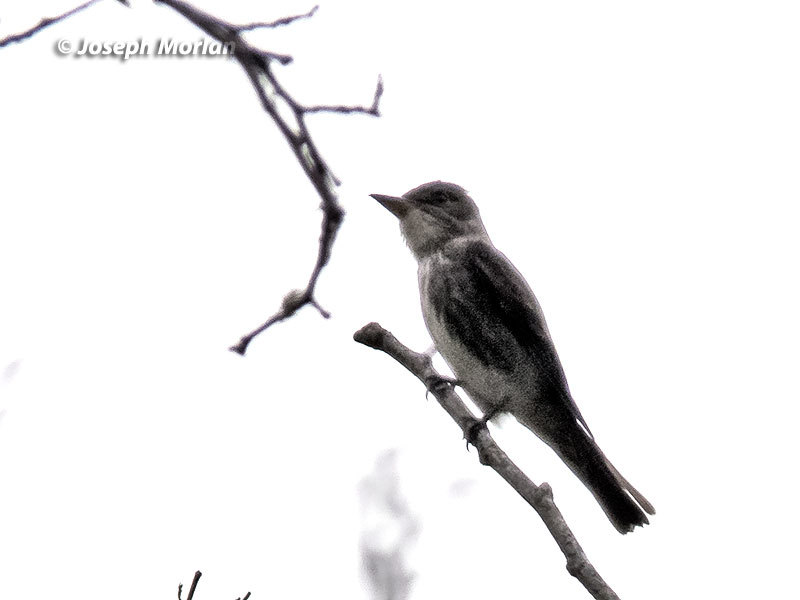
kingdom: Animalia
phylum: Chordata
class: Aves
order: Passeriformes
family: Tyrannidae
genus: Contopus
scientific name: Contopus cooperi
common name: Olive-sided flycatcher
